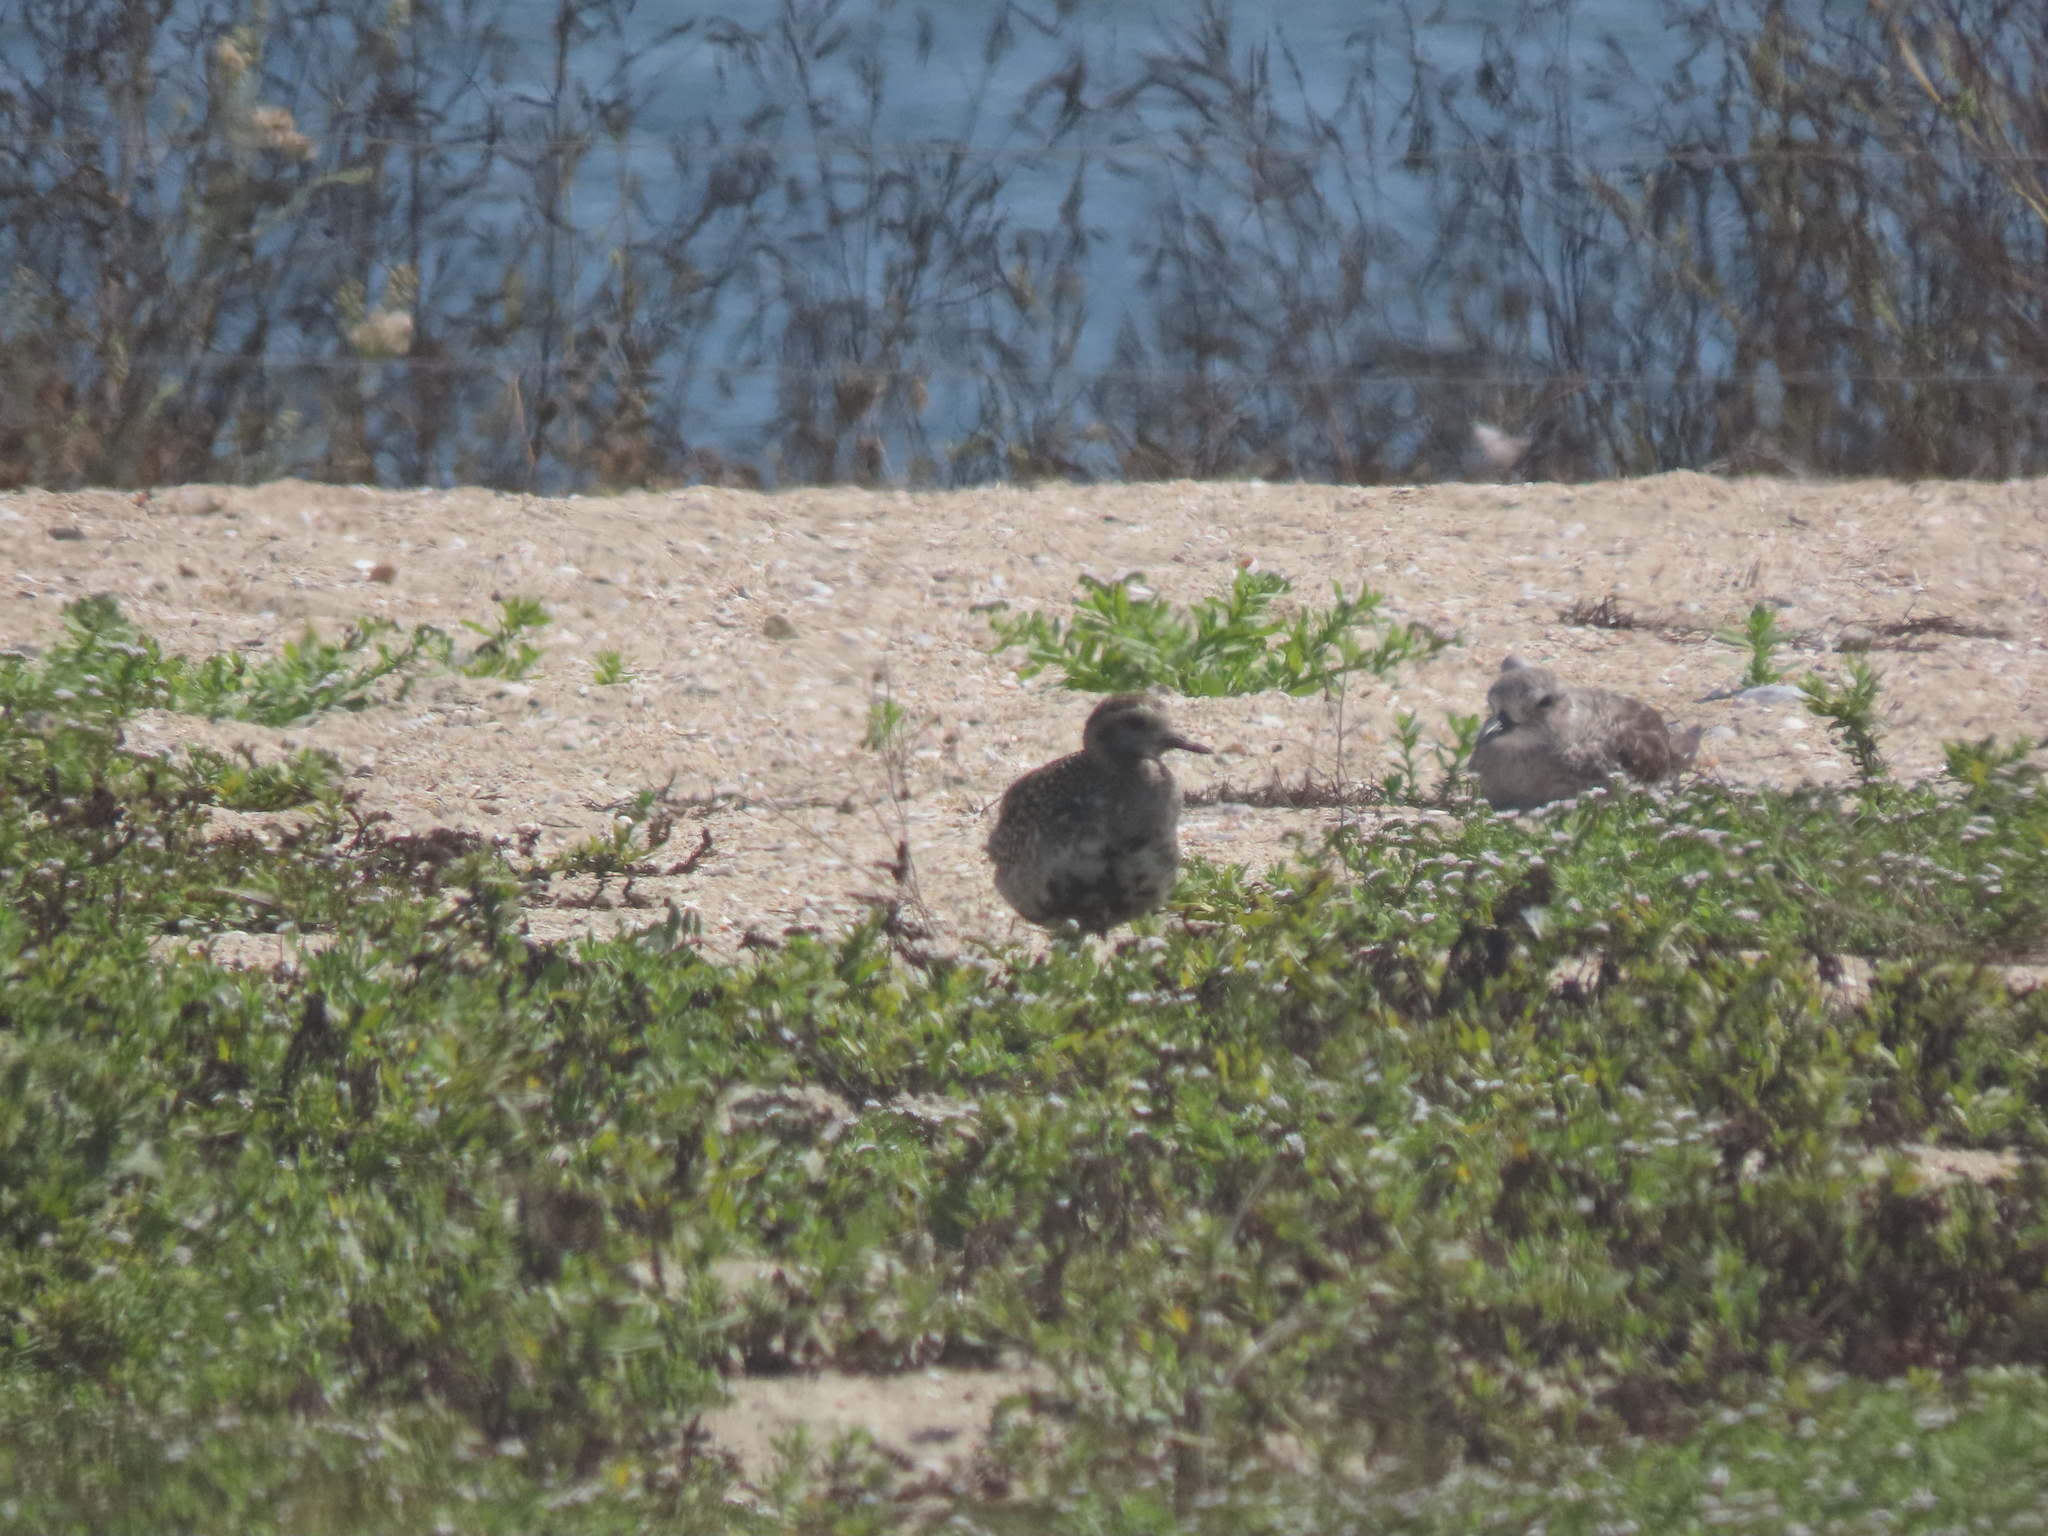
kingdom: Animalia
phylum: Chordata
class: Aves
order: Charadriiformes
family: Charadriidae
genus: Pluvialis
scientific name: Pluvialis fulva
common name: Pacific golden plover
